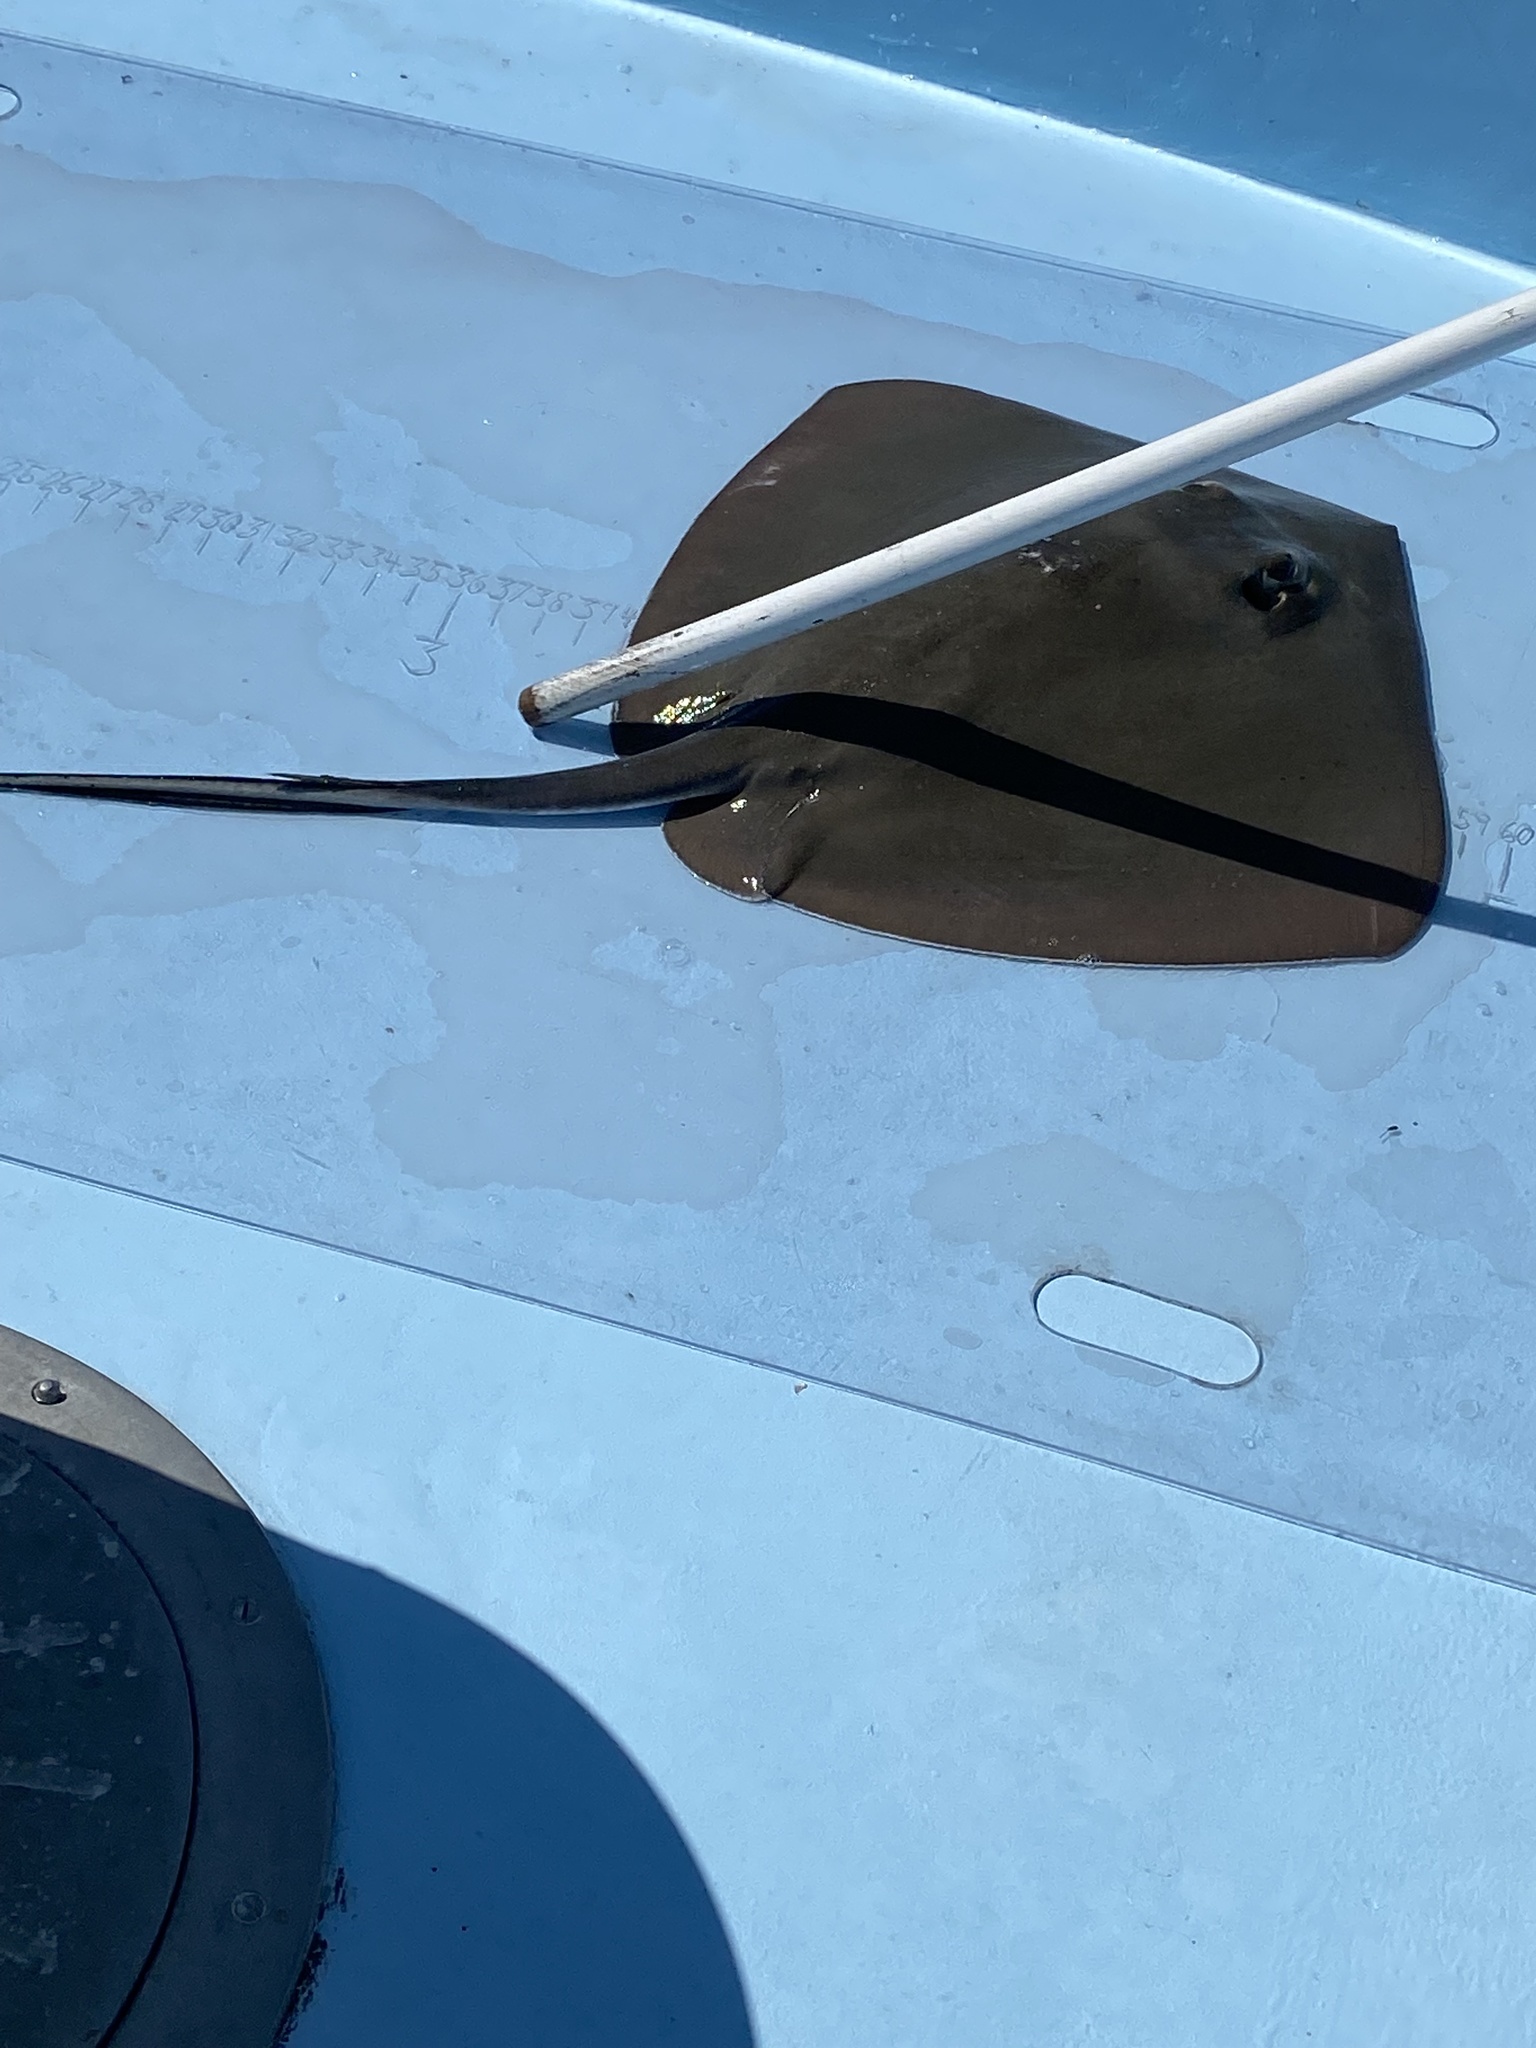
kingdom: Animalia
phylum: Chordata
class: Elasmobranchii
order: Myliobatiformes
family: Dasyatidae
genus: Hypanus
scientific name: Hypanus americanus
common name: Southern stingray
